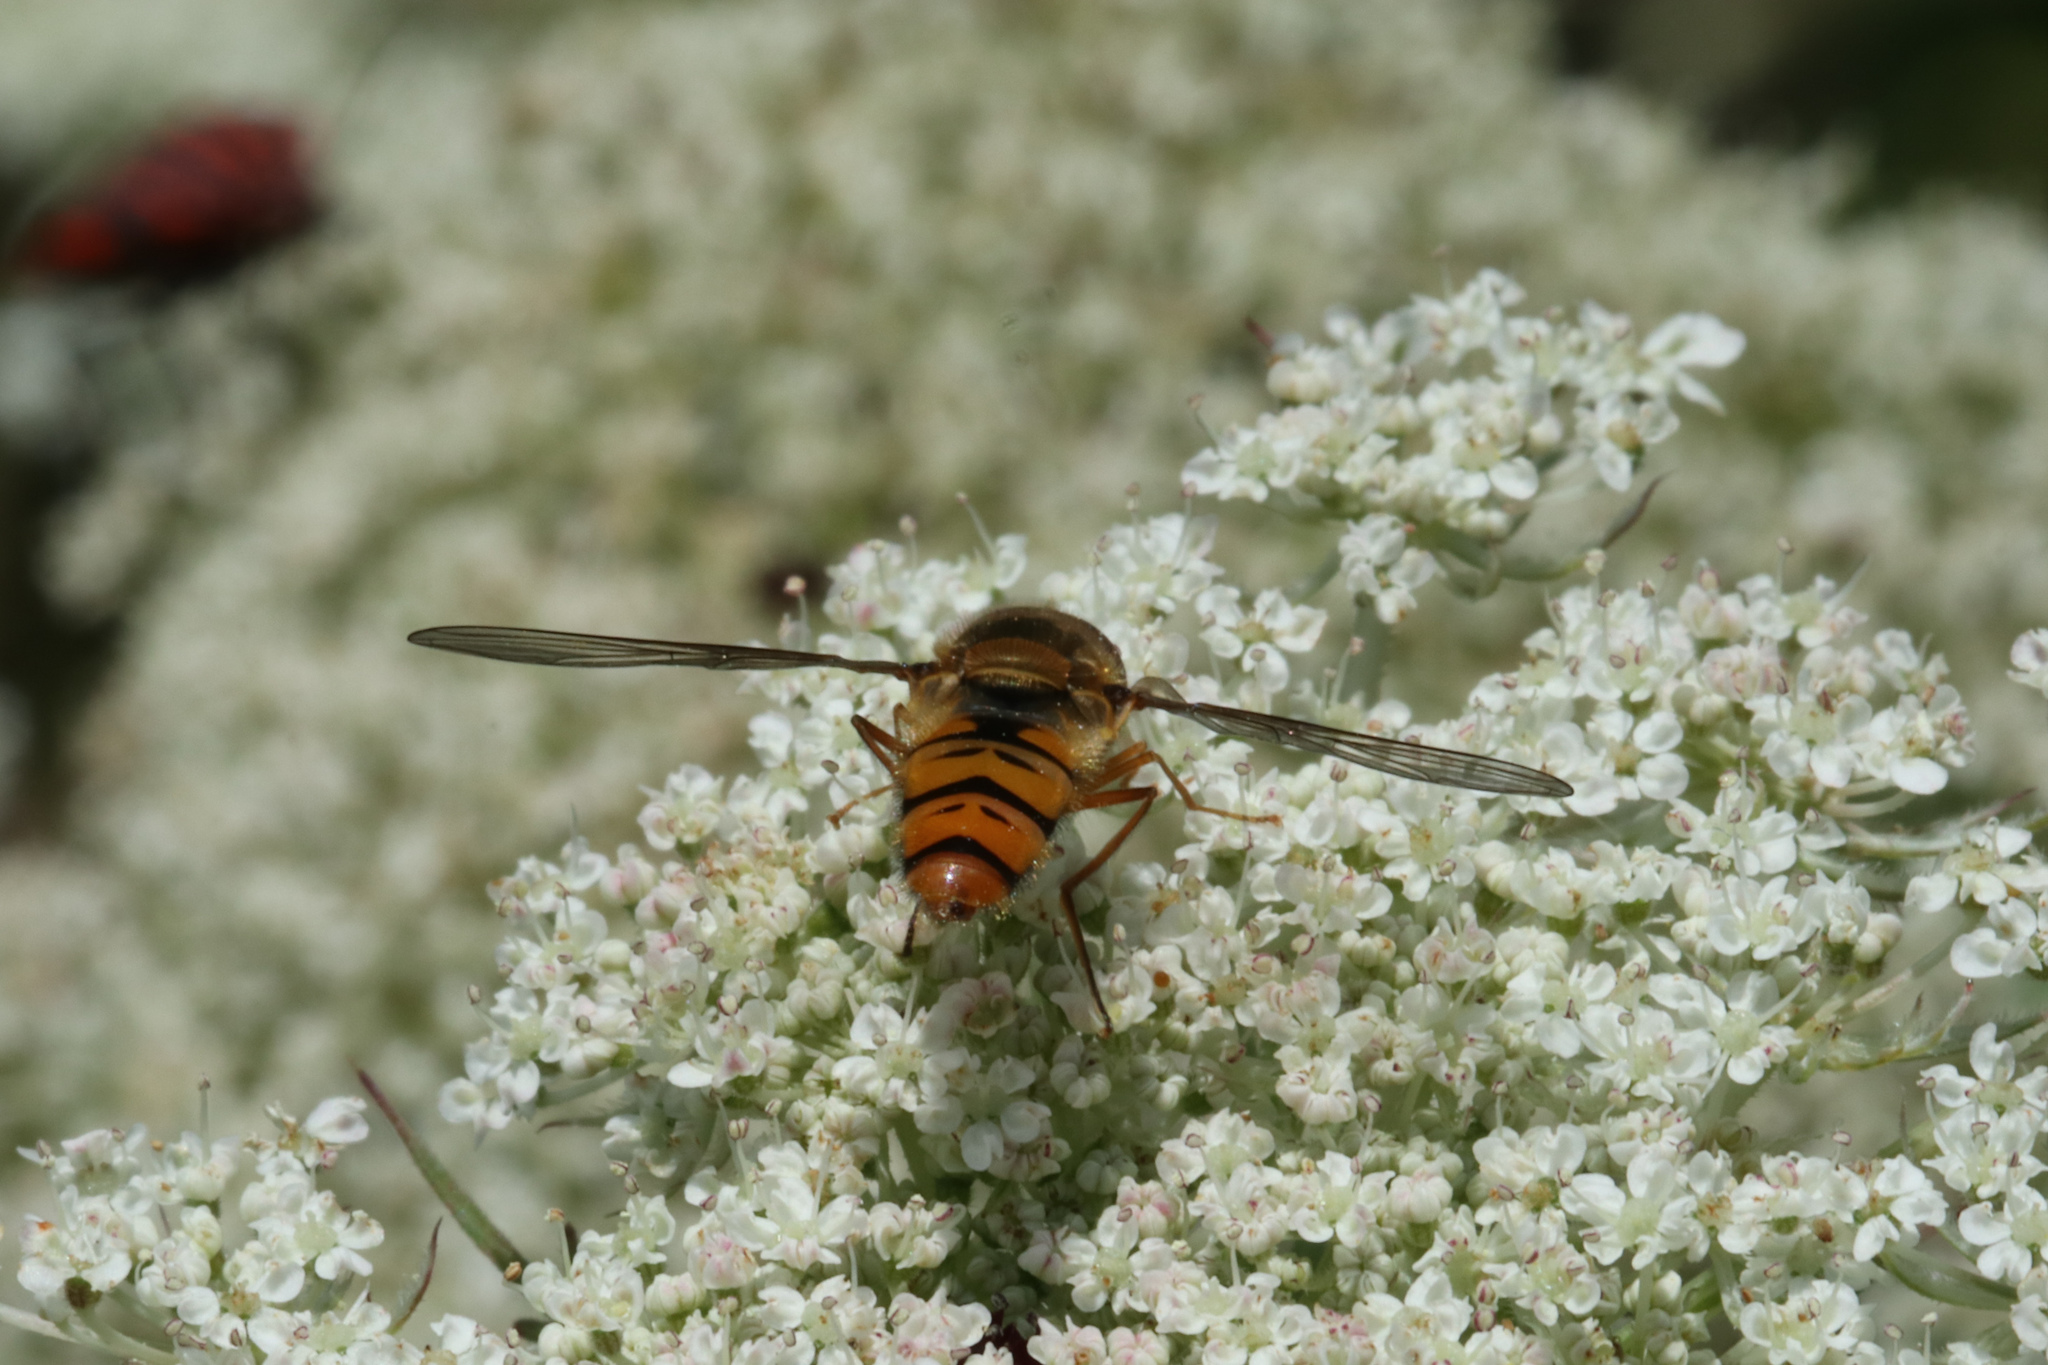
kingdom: Animalia
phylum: Arthropoda
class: Insecta
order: Diptera
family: Syrphidae
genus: Episyrphus
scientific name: Episyrphus balteatus
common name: Marmalade hoverfly
